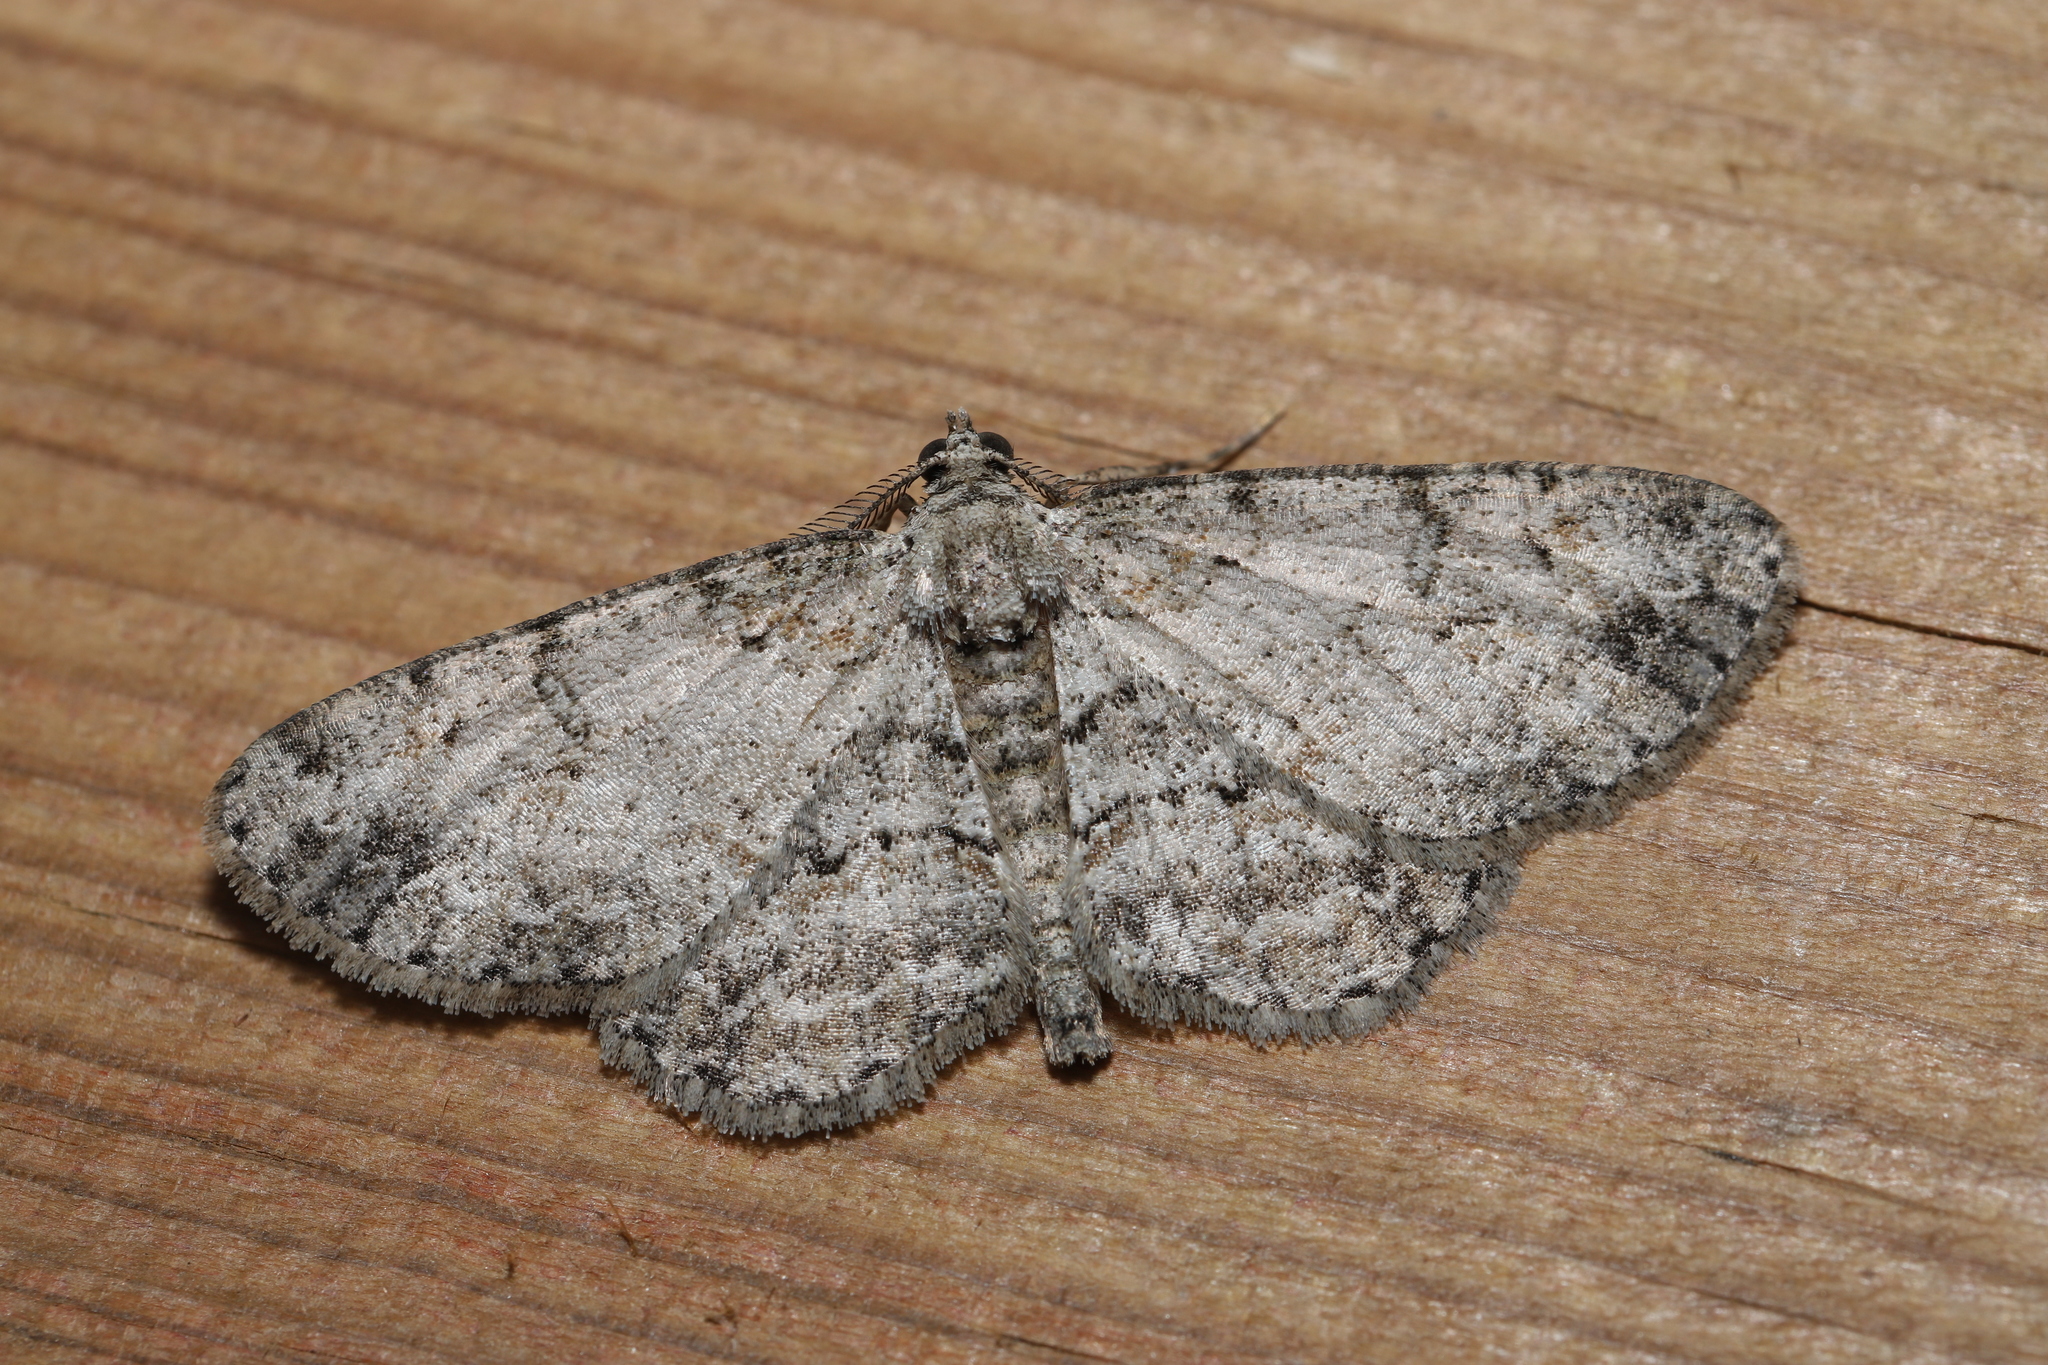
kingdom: Animalia
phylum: Arthropoda
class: Insecta
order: Lepidoptera
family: Geometridae
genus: Protoboarmia
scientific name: Protoboarmia porcelaria
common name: Porcelain gray
